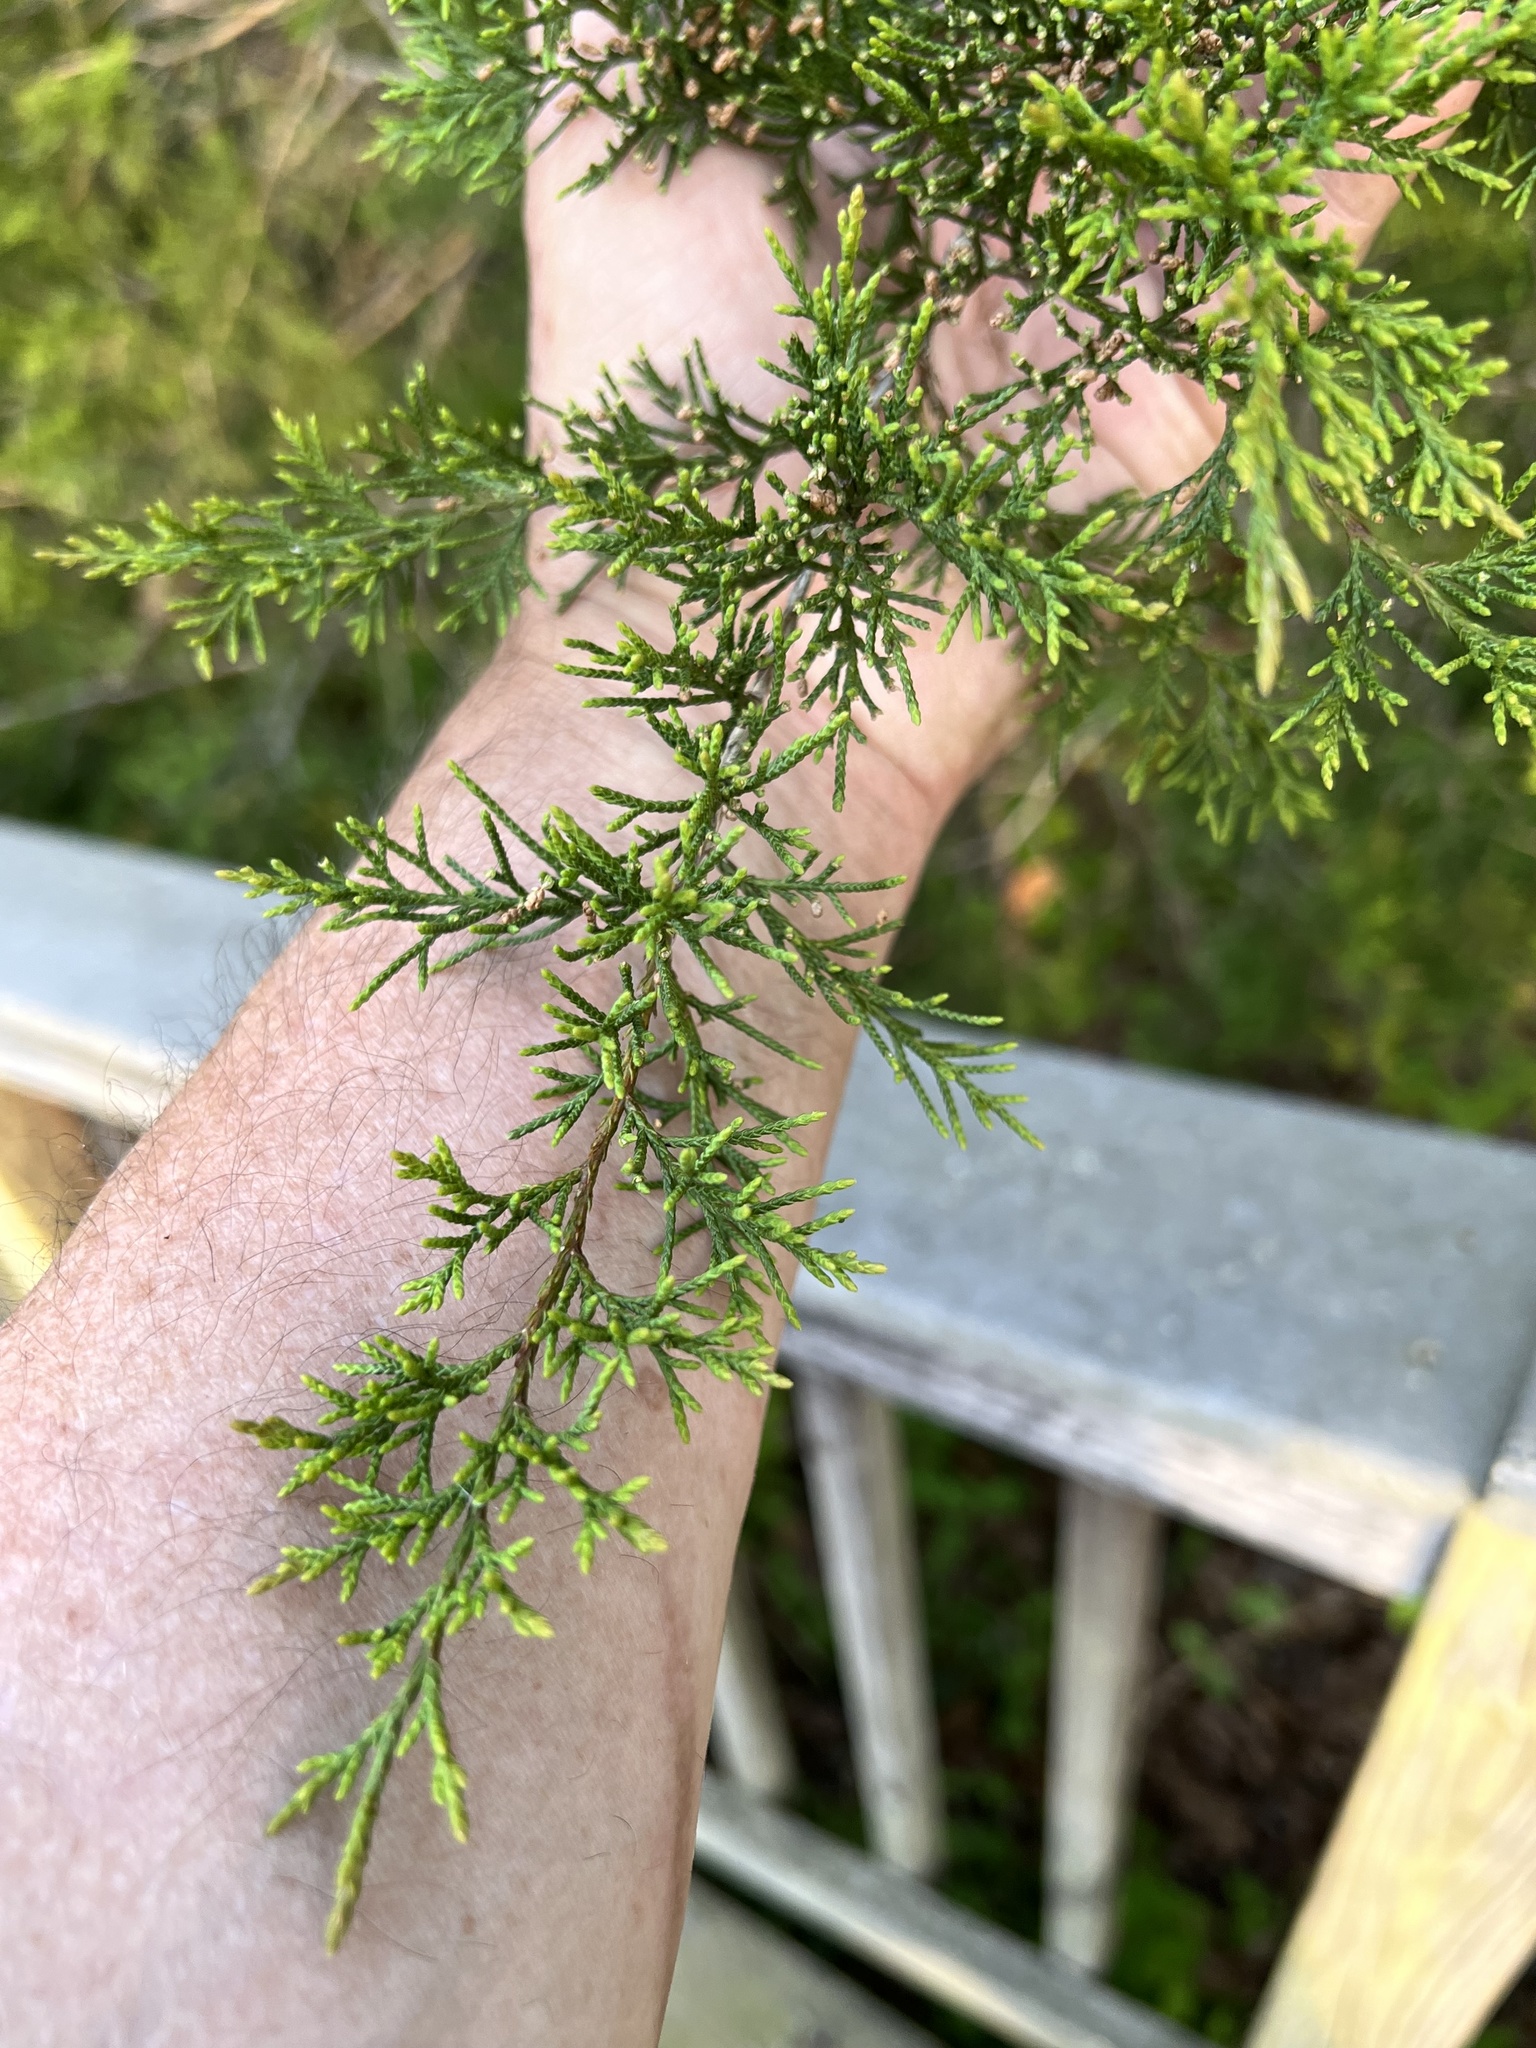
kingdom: Plantae
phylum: Tracheophyta
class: Pinopsida
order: Pinales
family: Cupressaceae
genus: Juniperus
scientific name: Juniperus virginiana
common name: Red juniper
